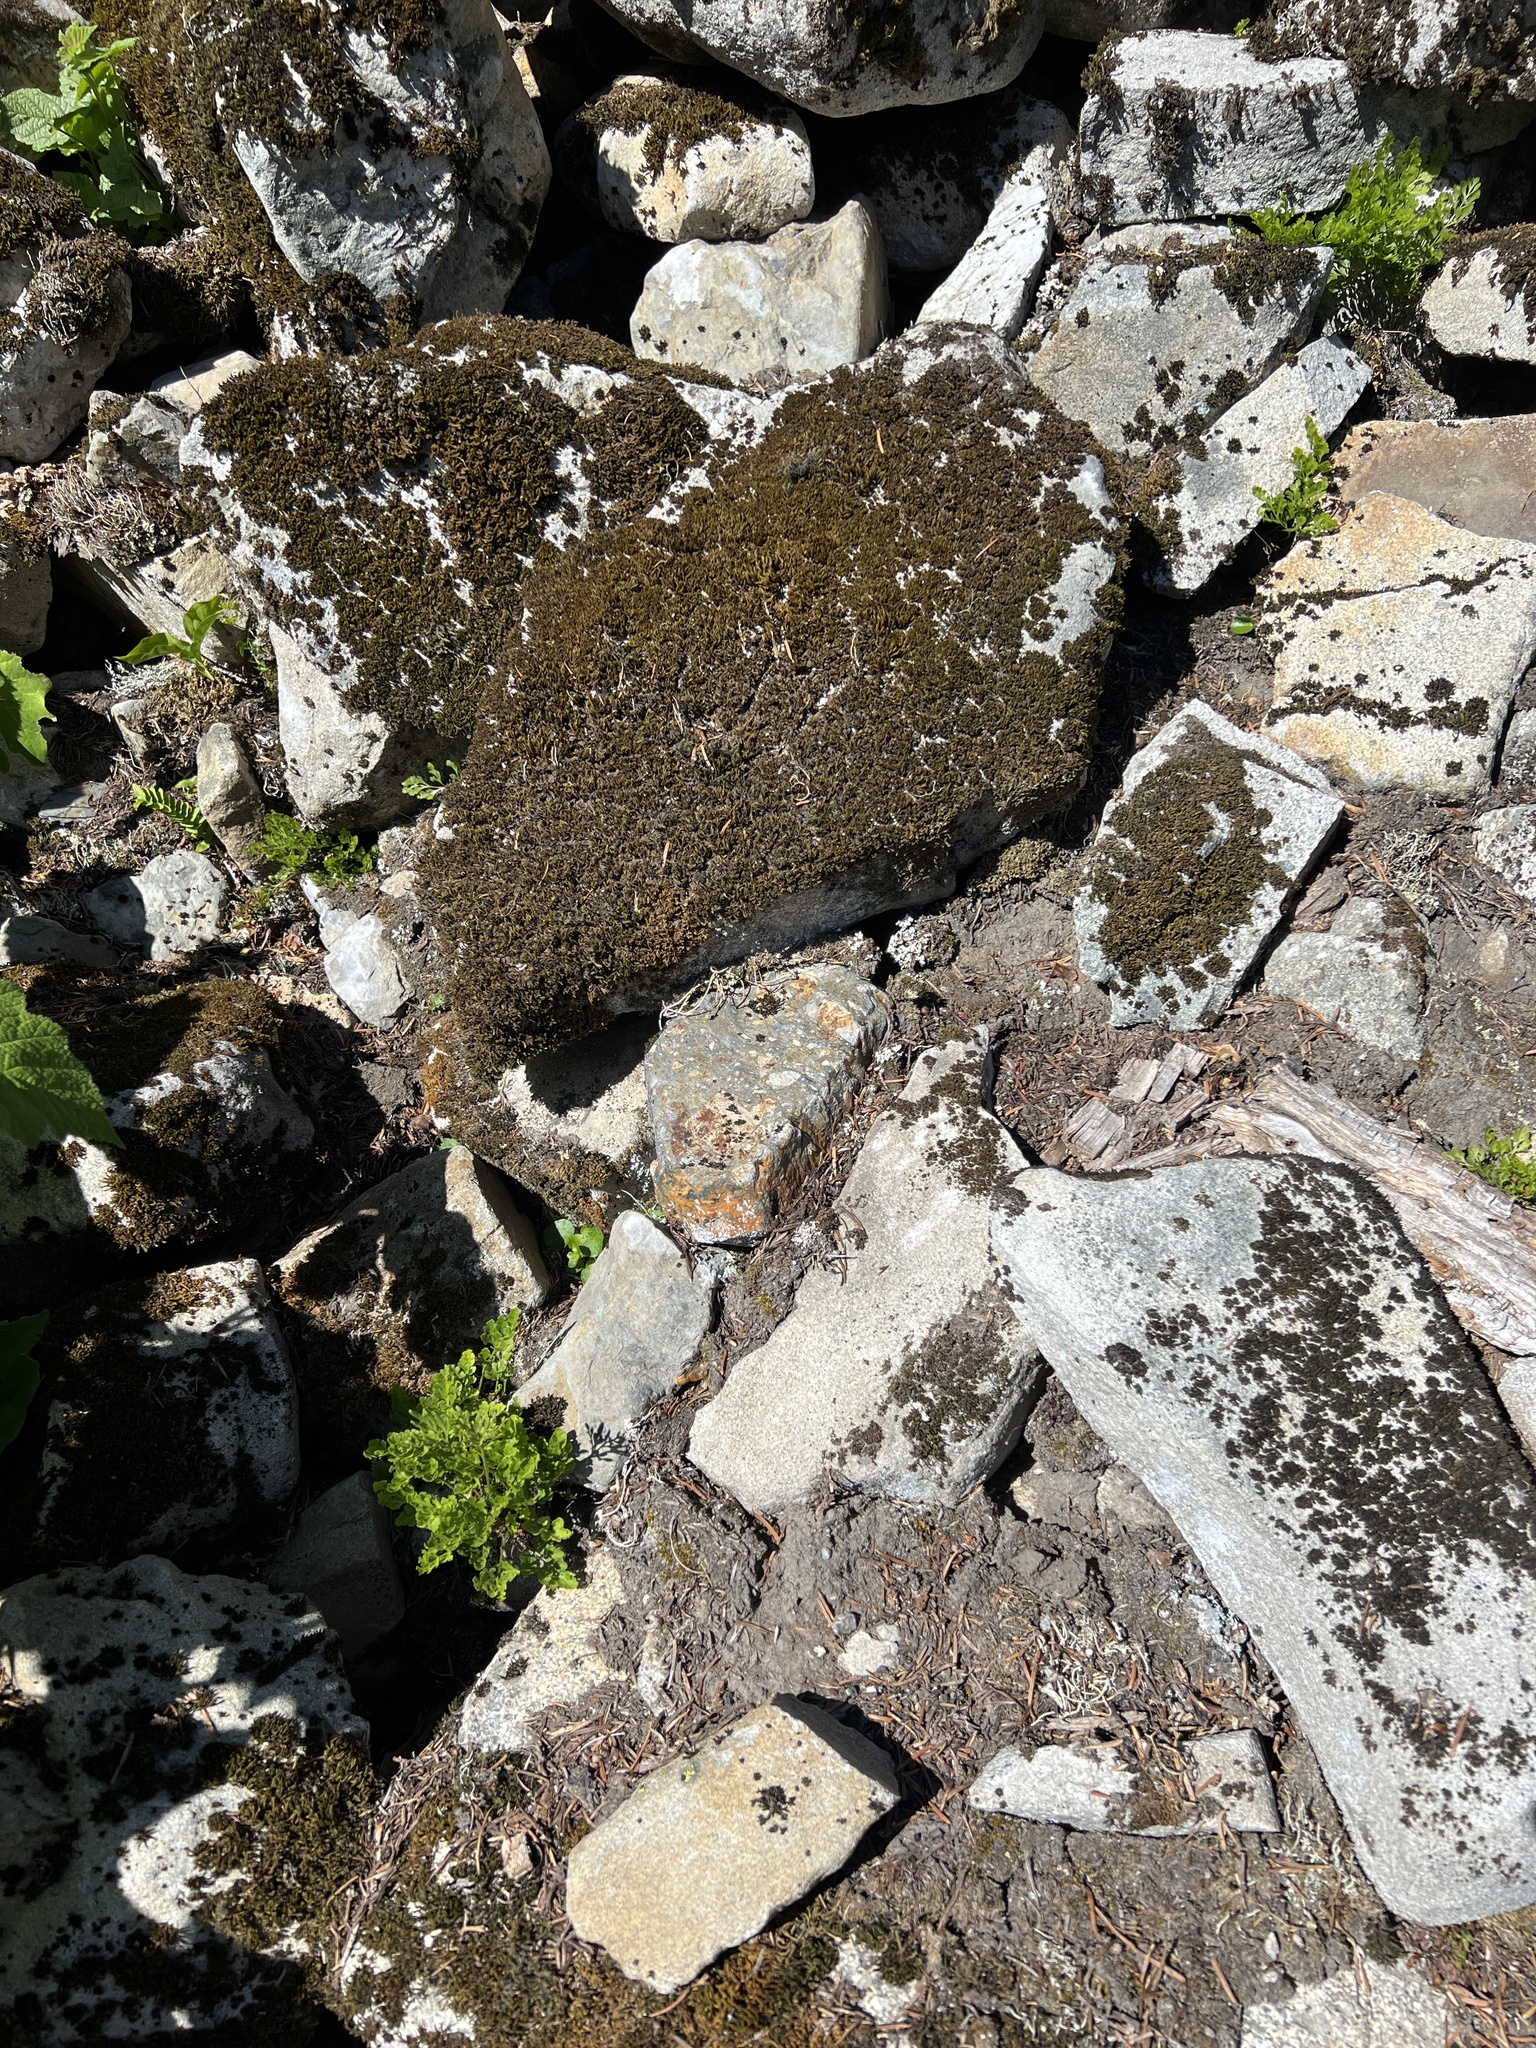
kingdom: Plantae
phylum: Tracheophyta
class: Polypodiopsida
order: Polypodiales
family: Pteridaceae
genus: Cryptogramma
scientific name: Cryptogramma cascadensis
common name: Cascade parsley fern
